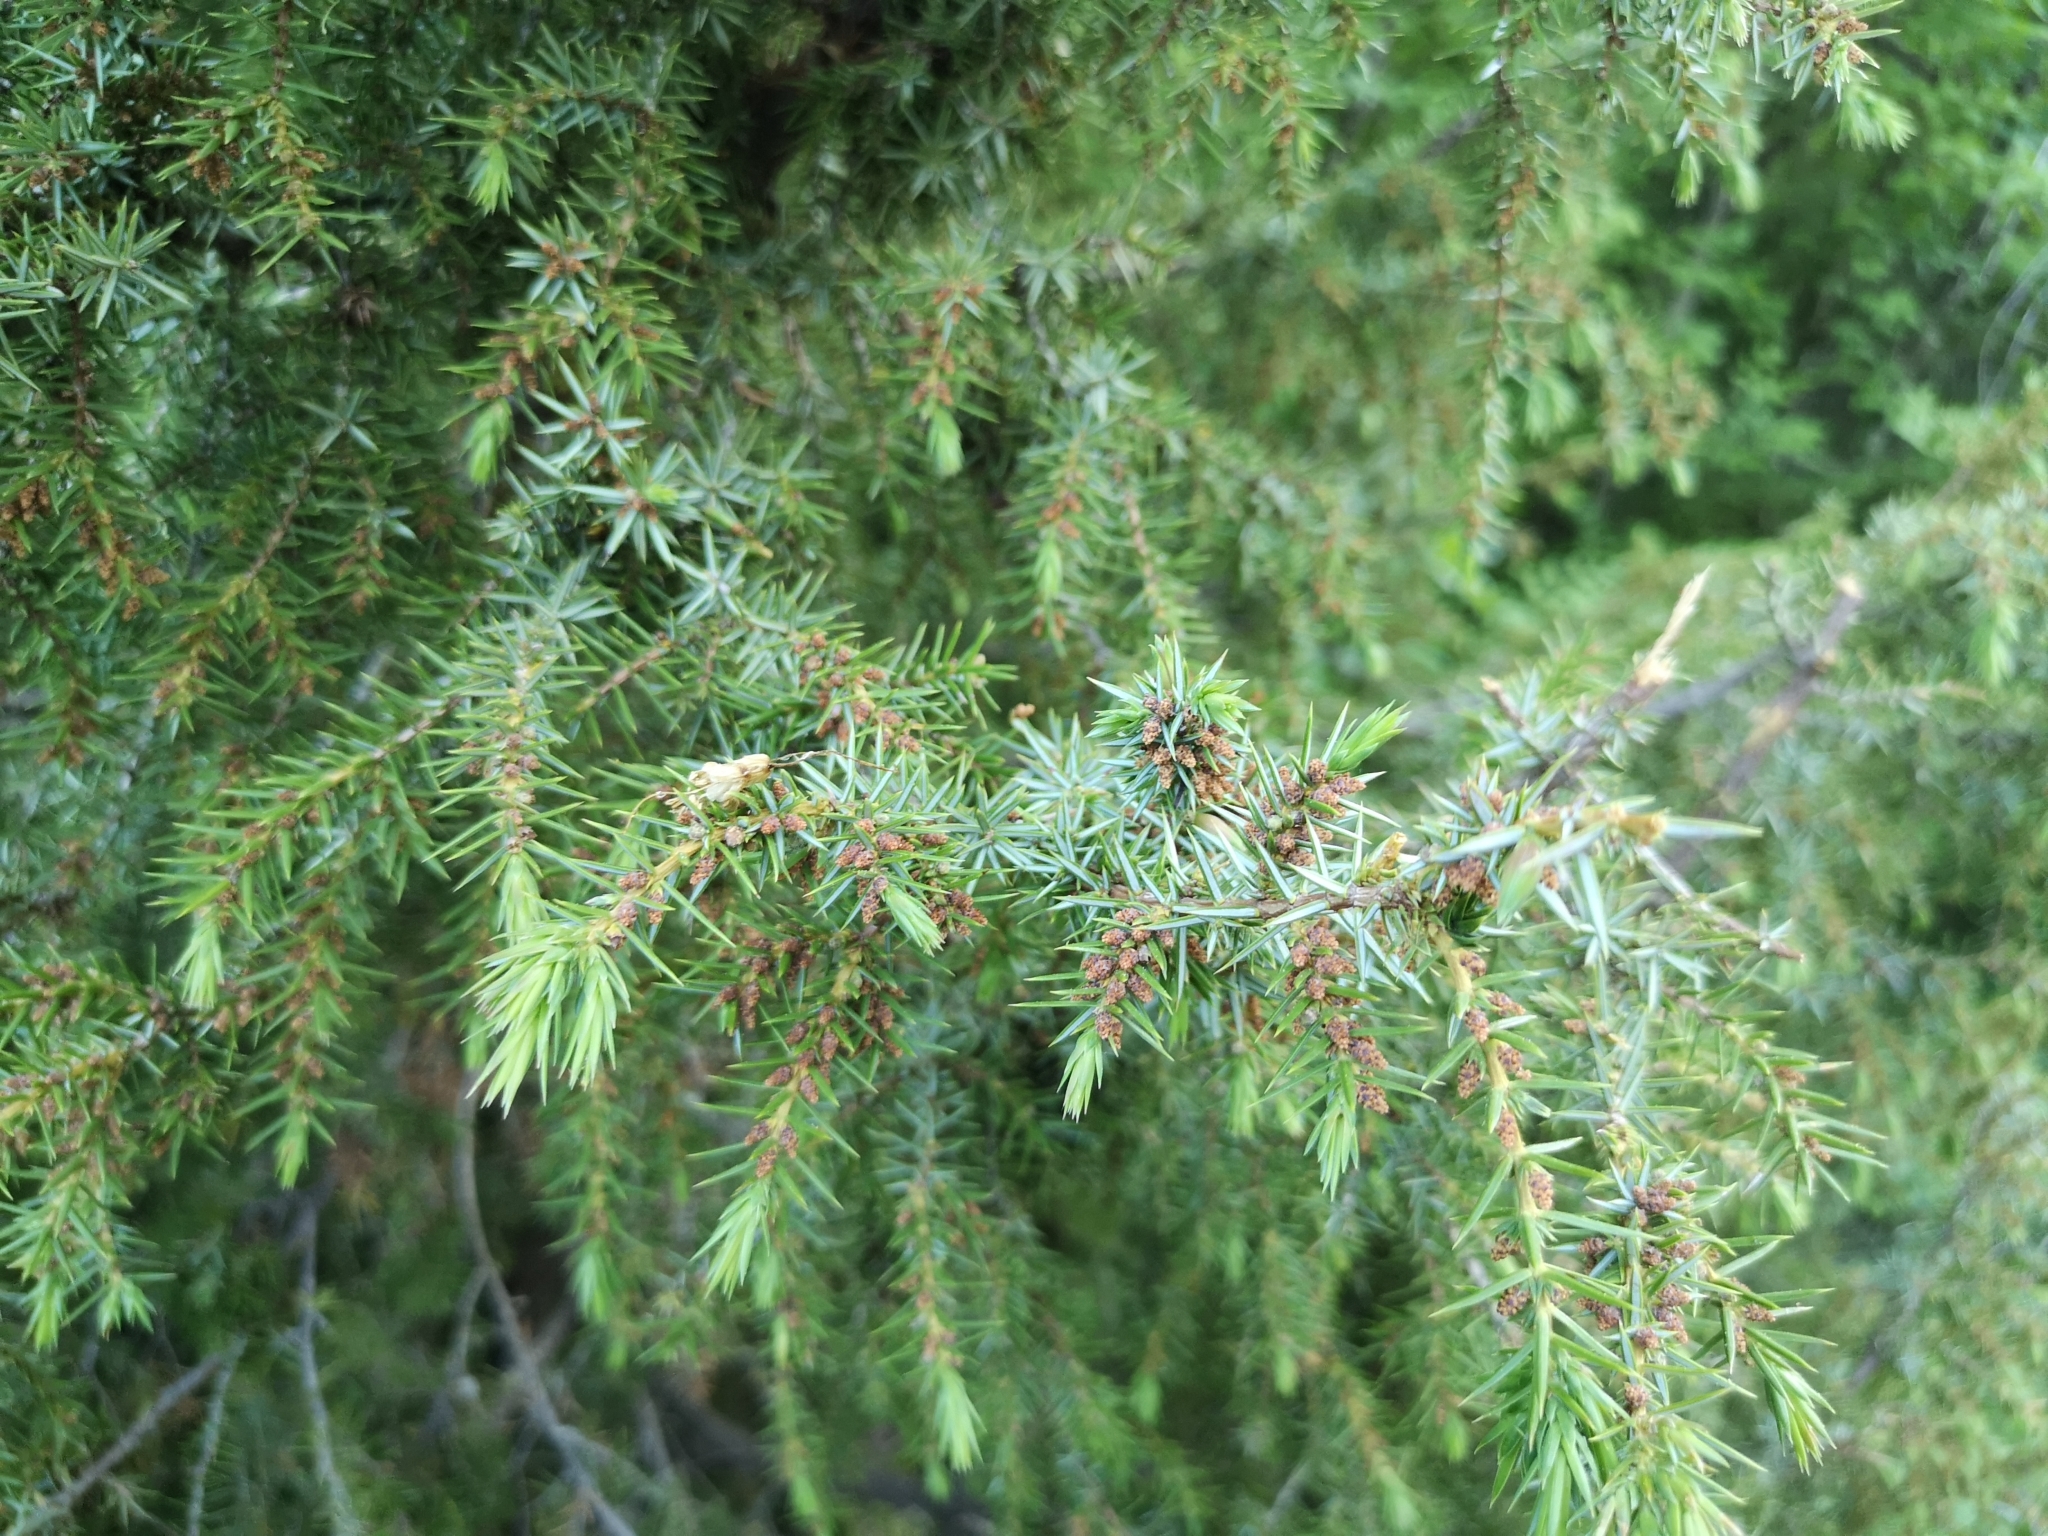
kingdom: Plantae
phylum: Tracheophyta
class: Pinopsida
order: Pinales
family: Cupressaceae
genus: Juniperus
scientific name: Juniperus communis
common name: Common juniper
